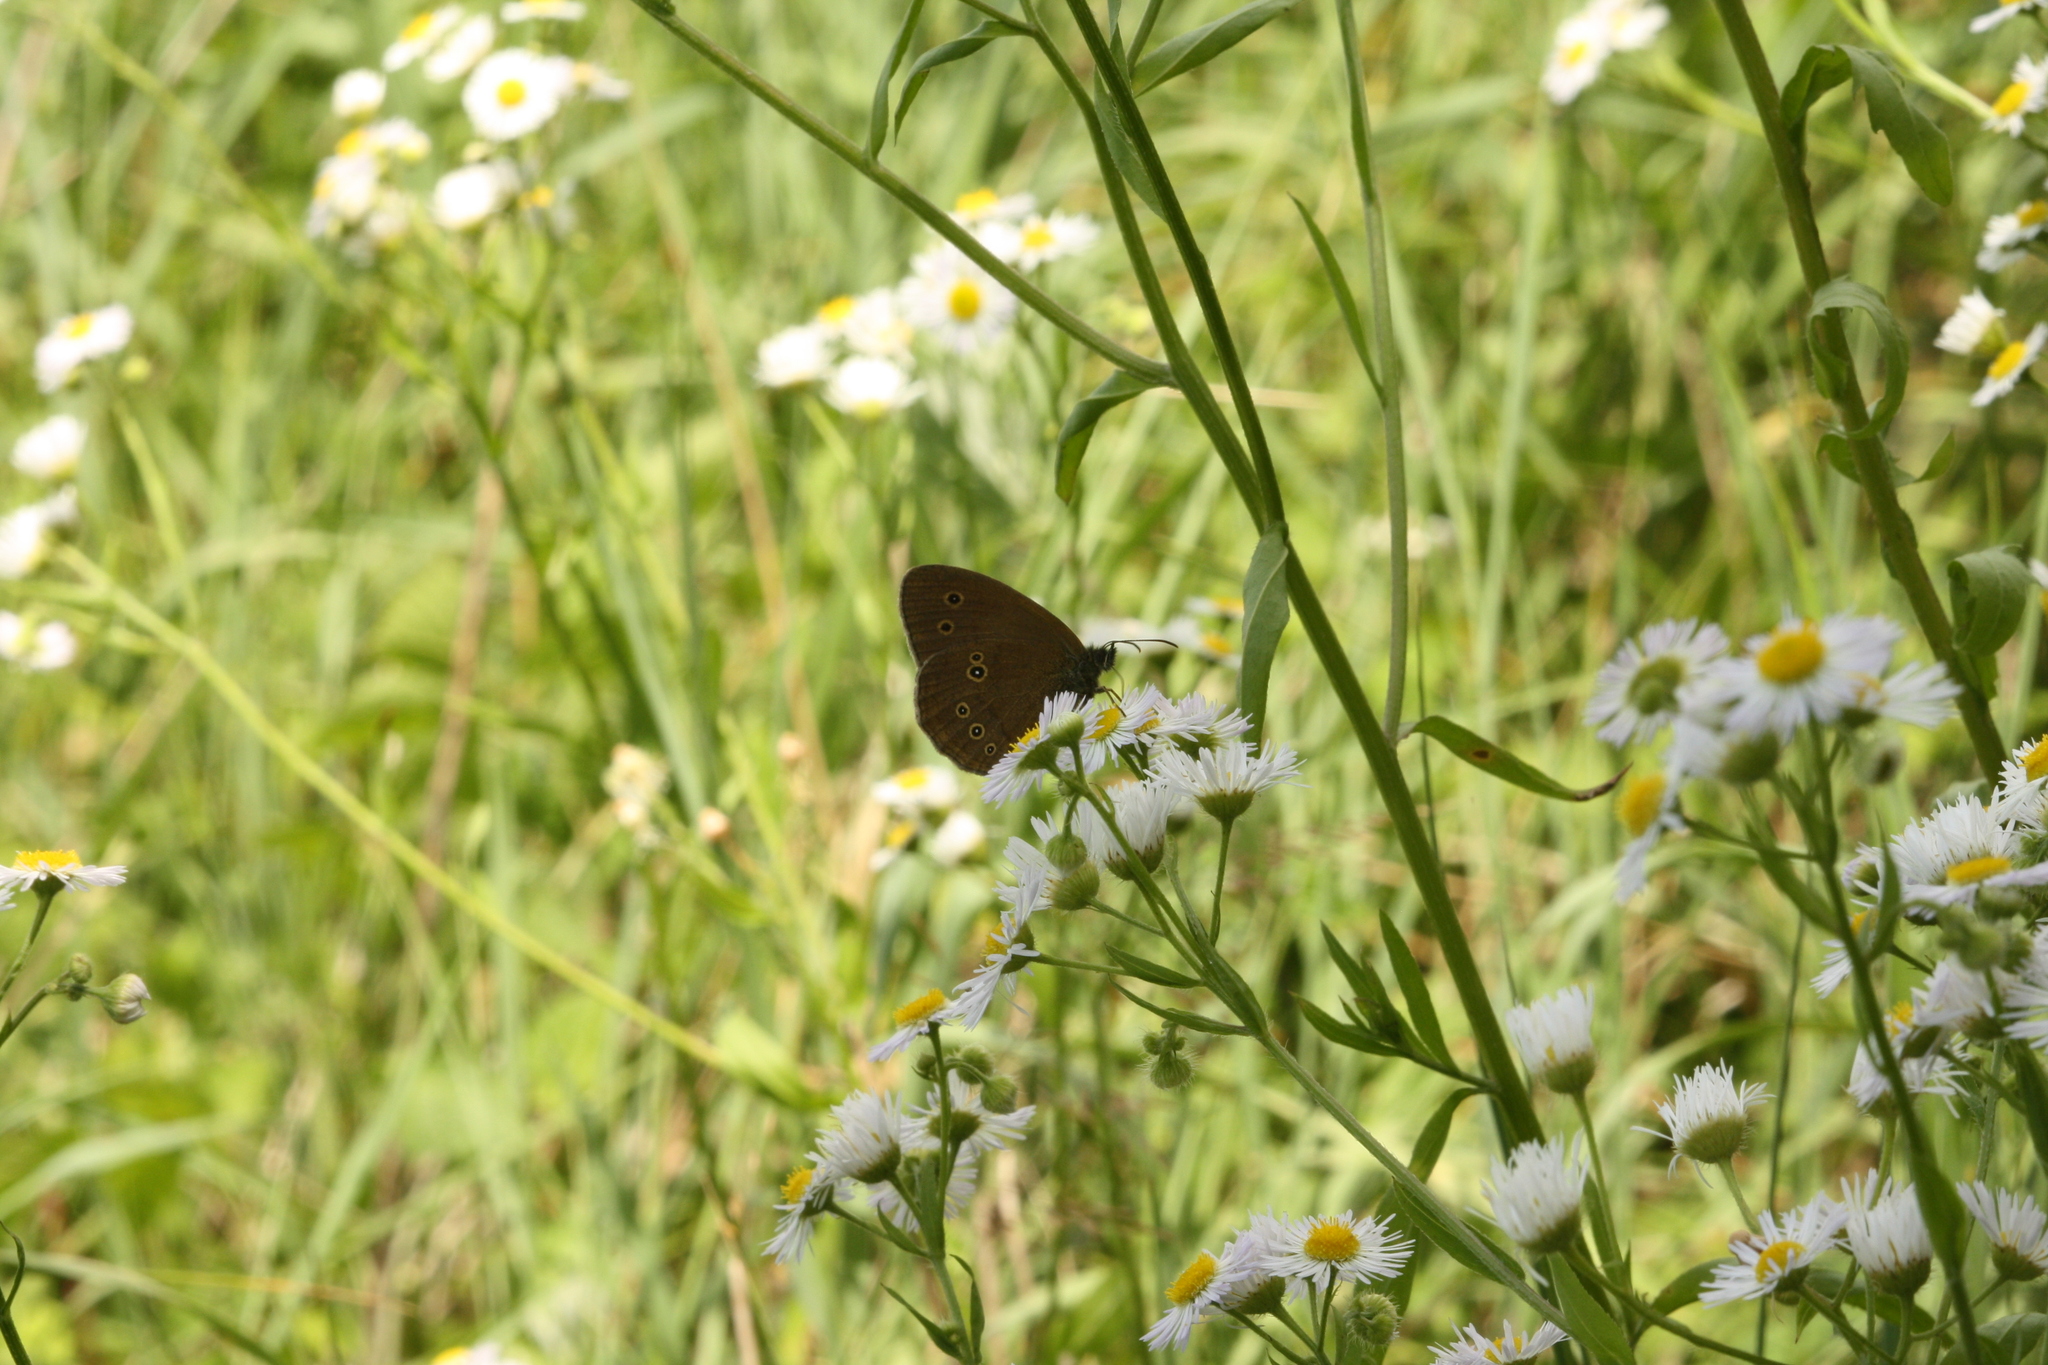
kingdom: Animalia
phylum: Arthropoda
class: Insecta
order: Lepidoptera
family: Nymphalidae
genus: Aphantopus
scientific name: Aphantopus hyperantus
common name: Ringlet
